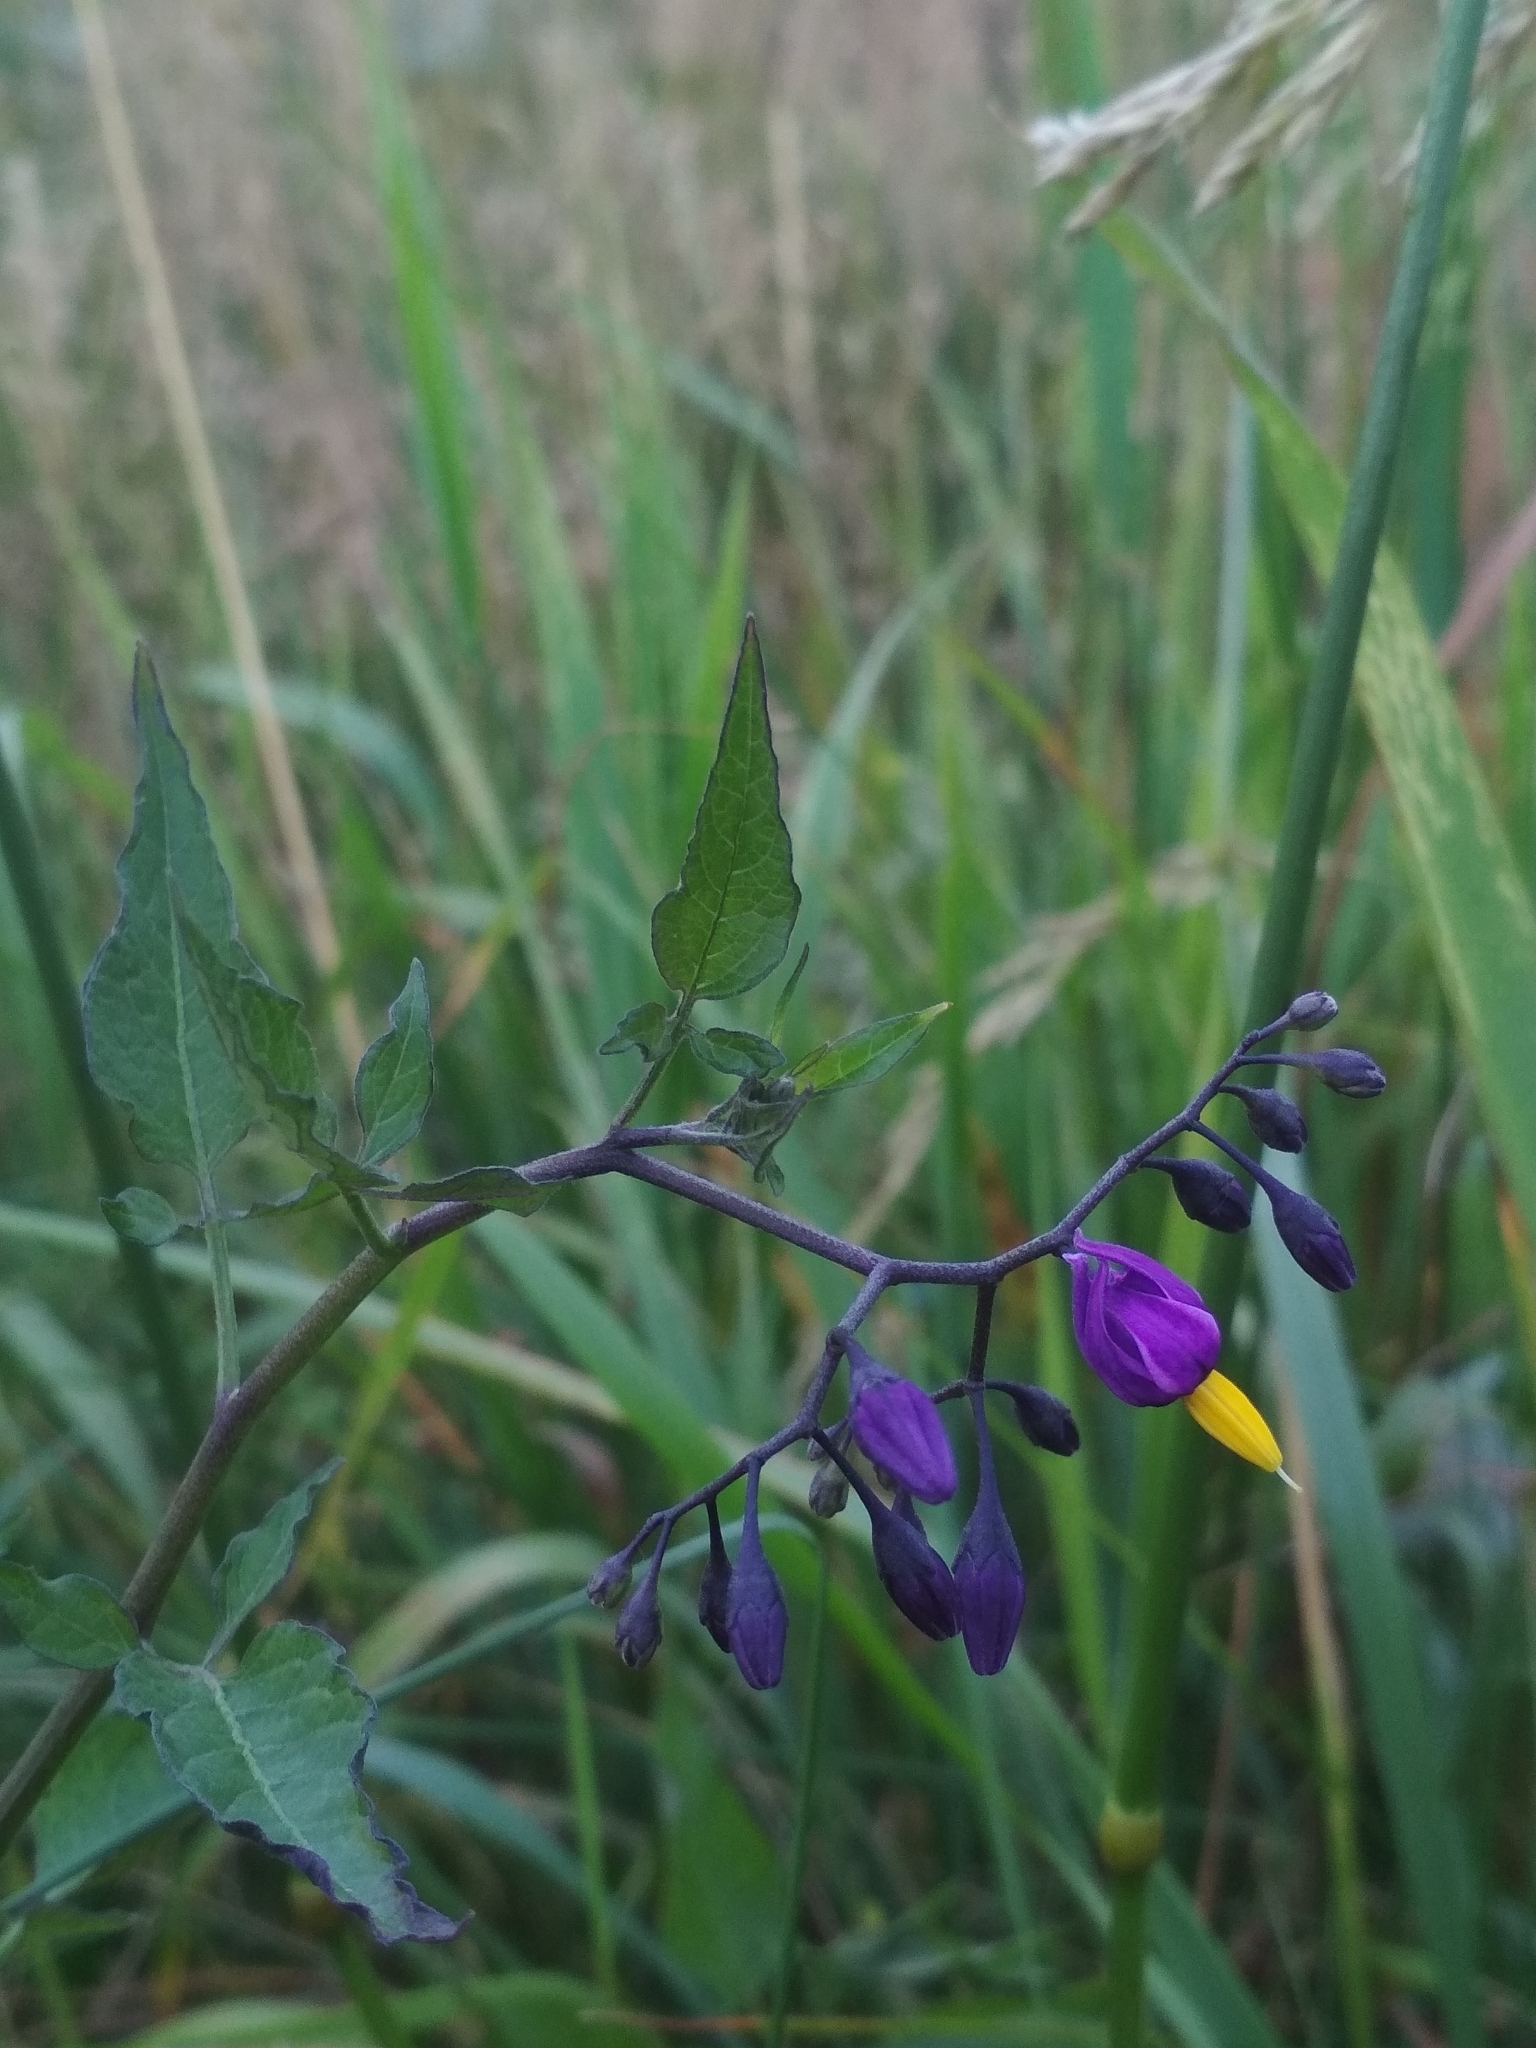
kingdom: Plantae
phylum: Tracheophyta
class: Magnoliopsida
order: Solanales
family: Solanaceae
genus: Solanum
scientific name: Solanum dulcamara
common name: Climbing nightshade
